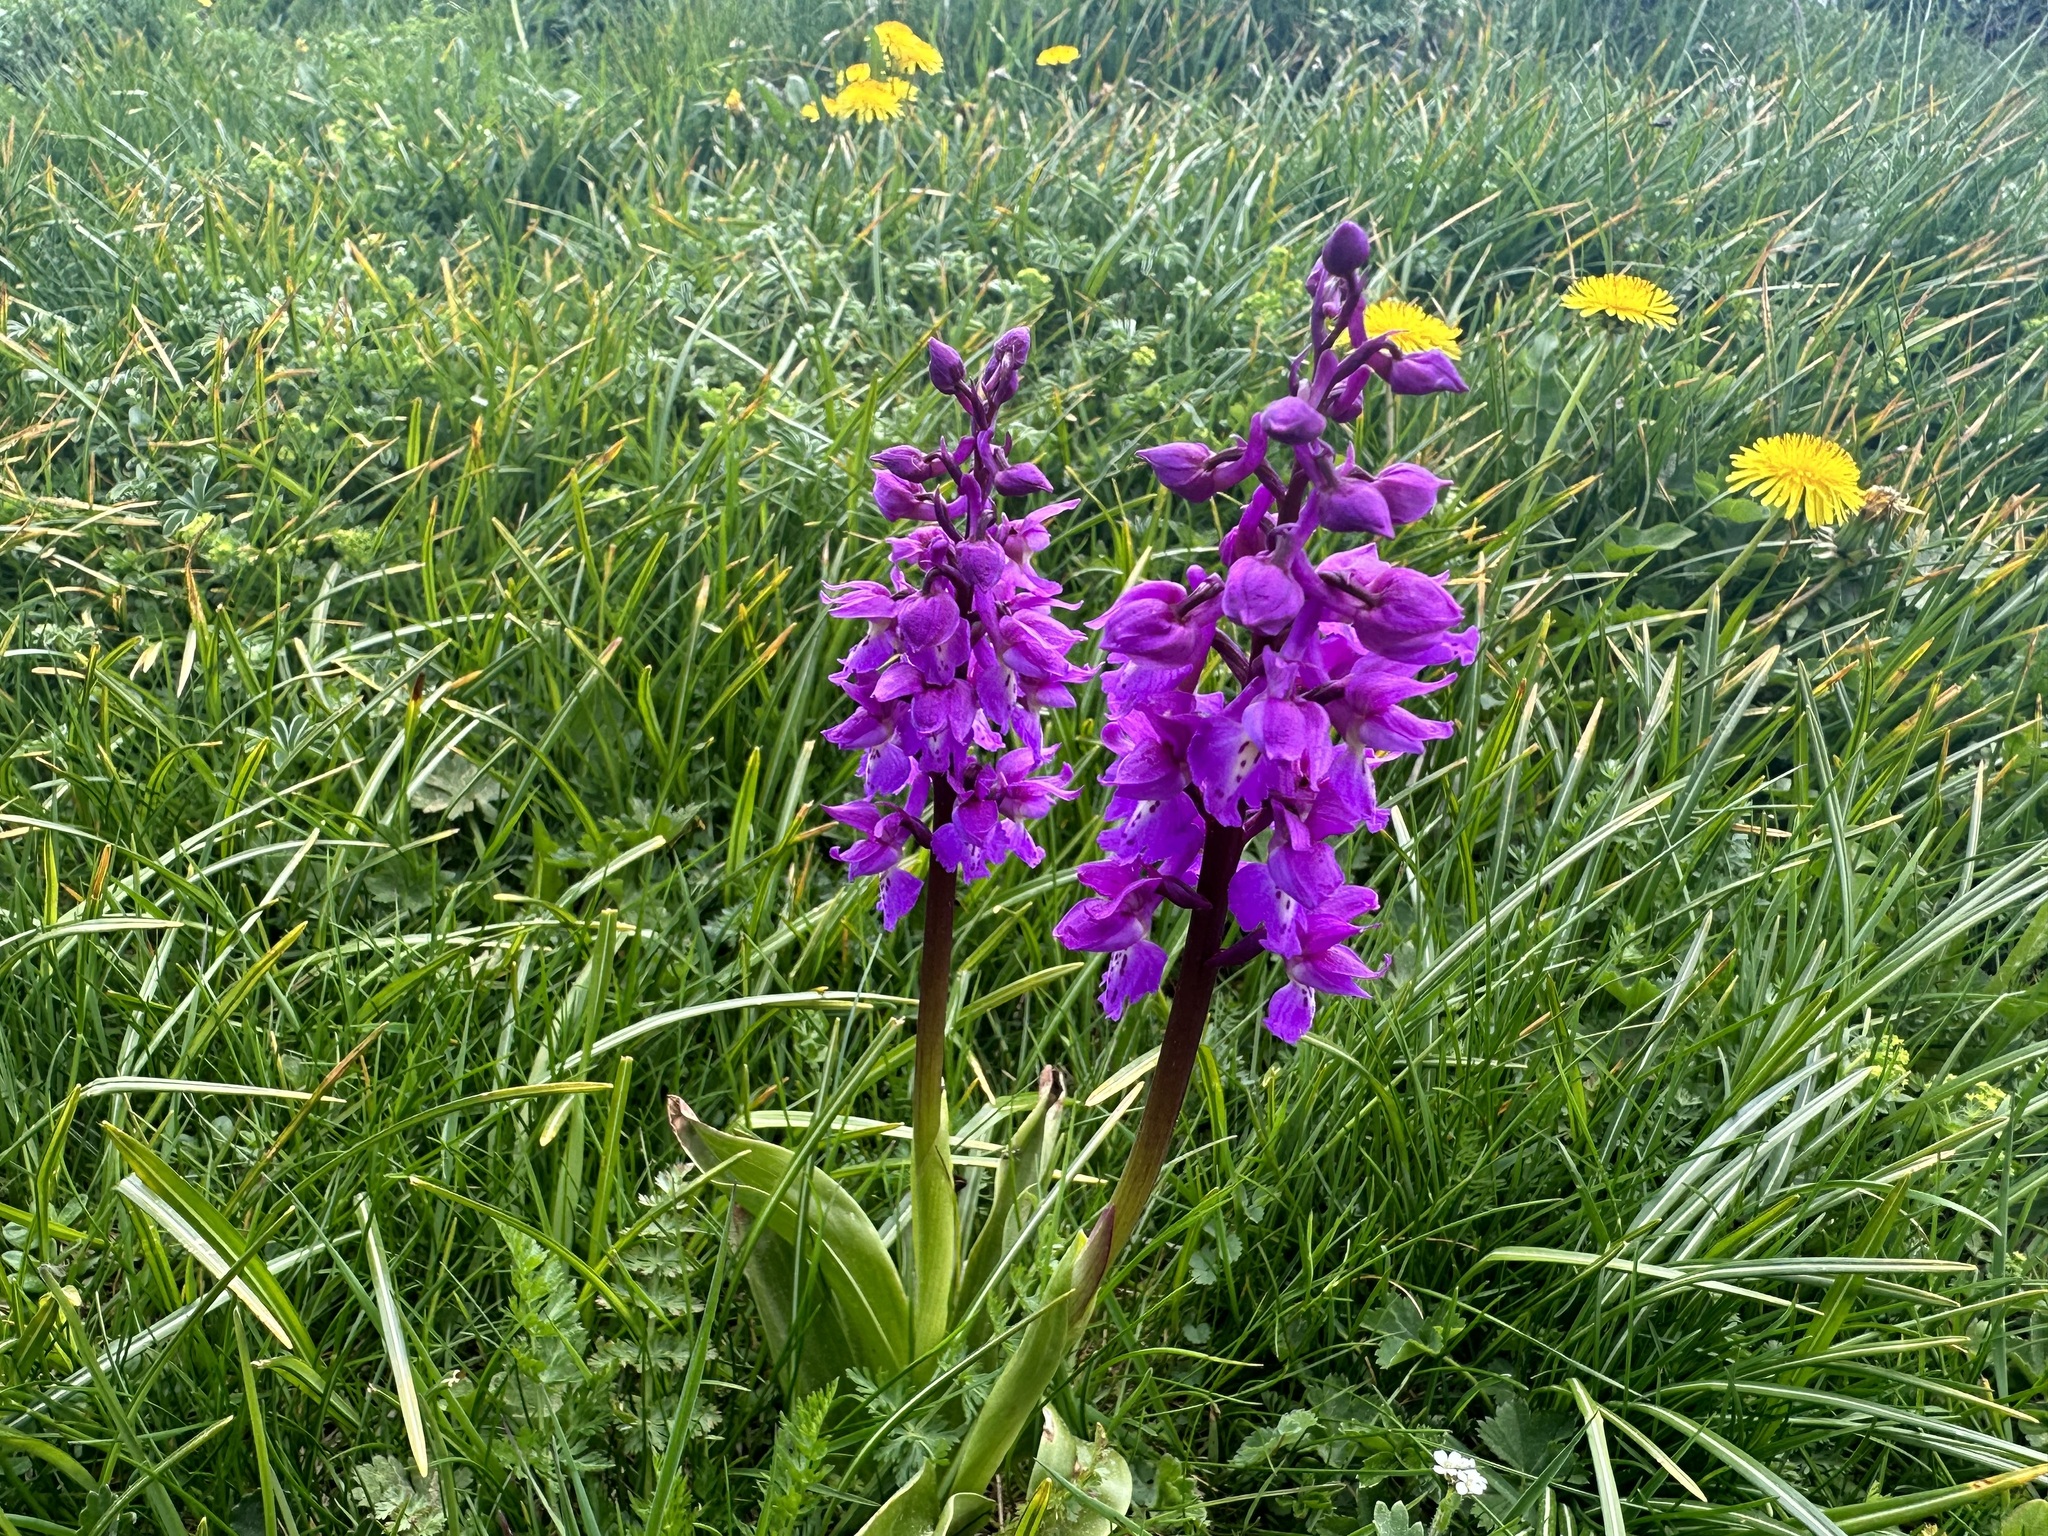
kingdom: Plantae
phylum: Tracheophyta
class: Liliopsida
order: Asparagales
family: Orchidaceae
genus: Orchis
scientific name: Orchis mascula
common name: Early-purple orchid
